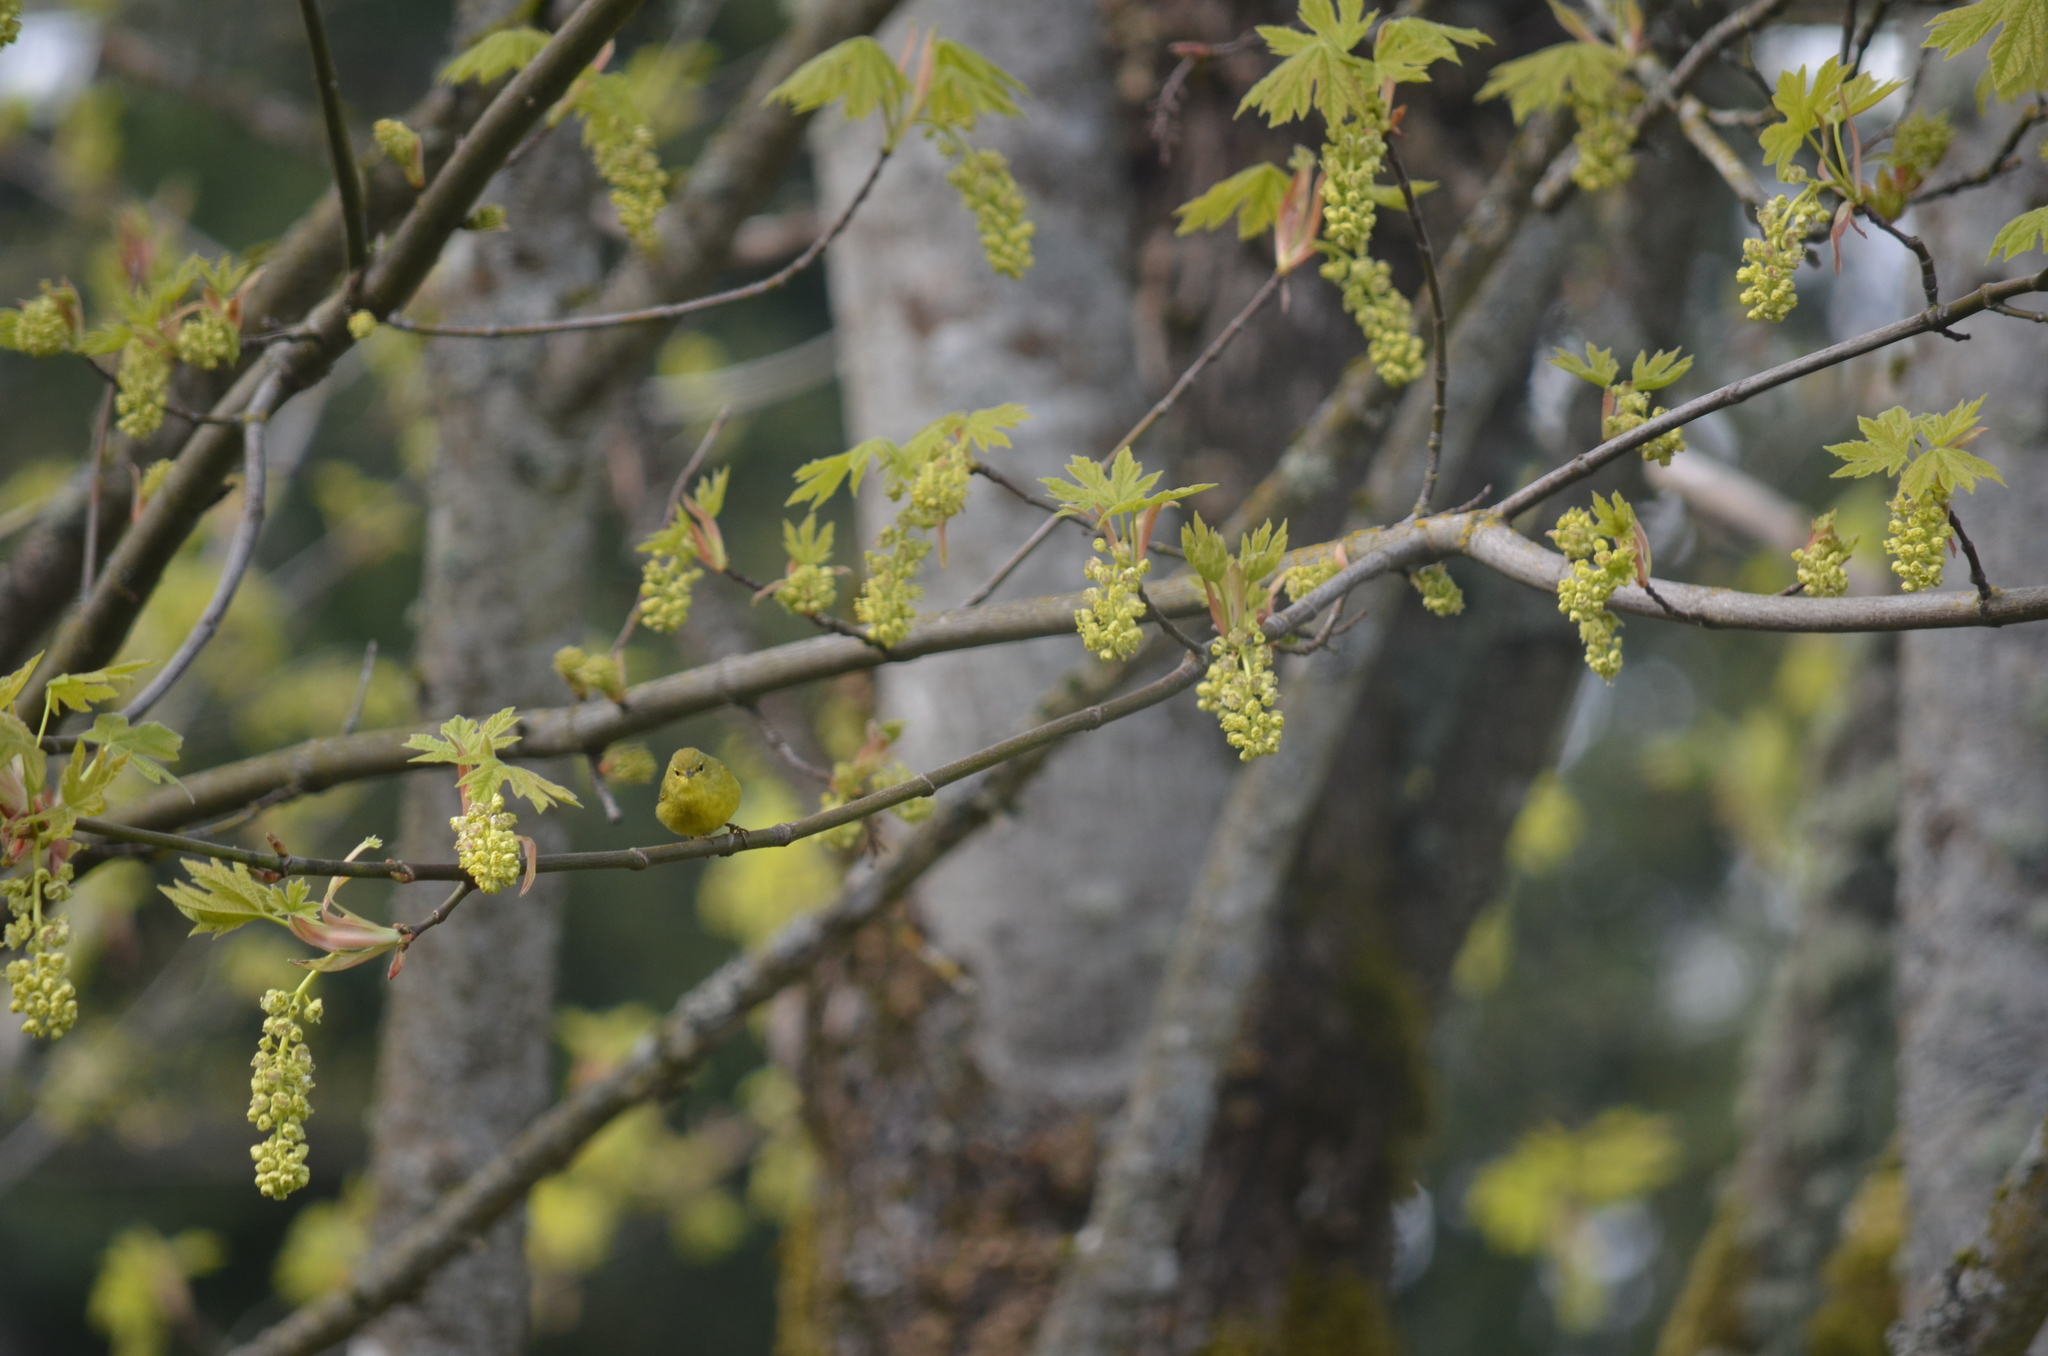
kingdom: Animalia
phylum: Chordata
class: Aves
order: Passeriformes
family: Parulidae
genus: Leiothlypis
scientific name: Leiothlypis celata
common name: Orange-crowned warbler
